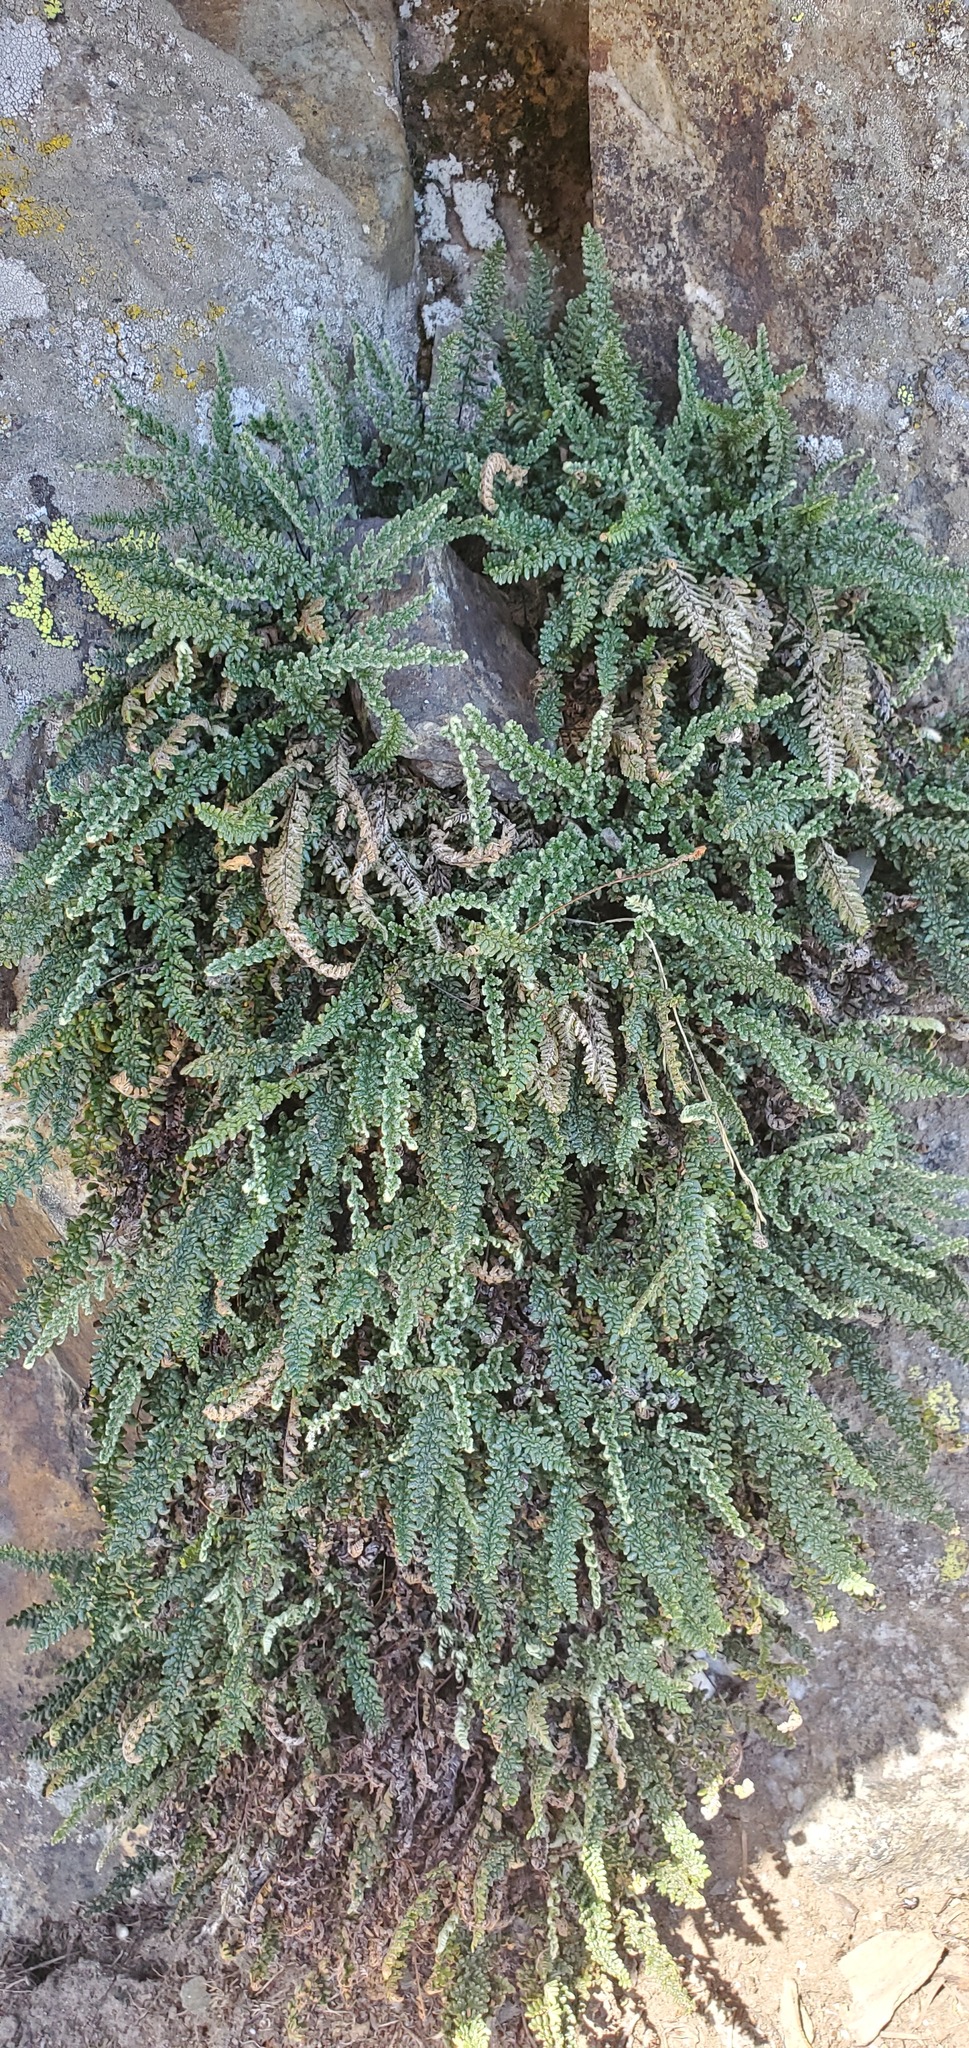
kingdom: Plantae
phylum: Tracheophyta
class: Polypodiopsida
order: Polypodiales
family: Pteridaceae
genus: Myriopteris
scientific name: Myriopteris gracillima
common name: Lace fern
